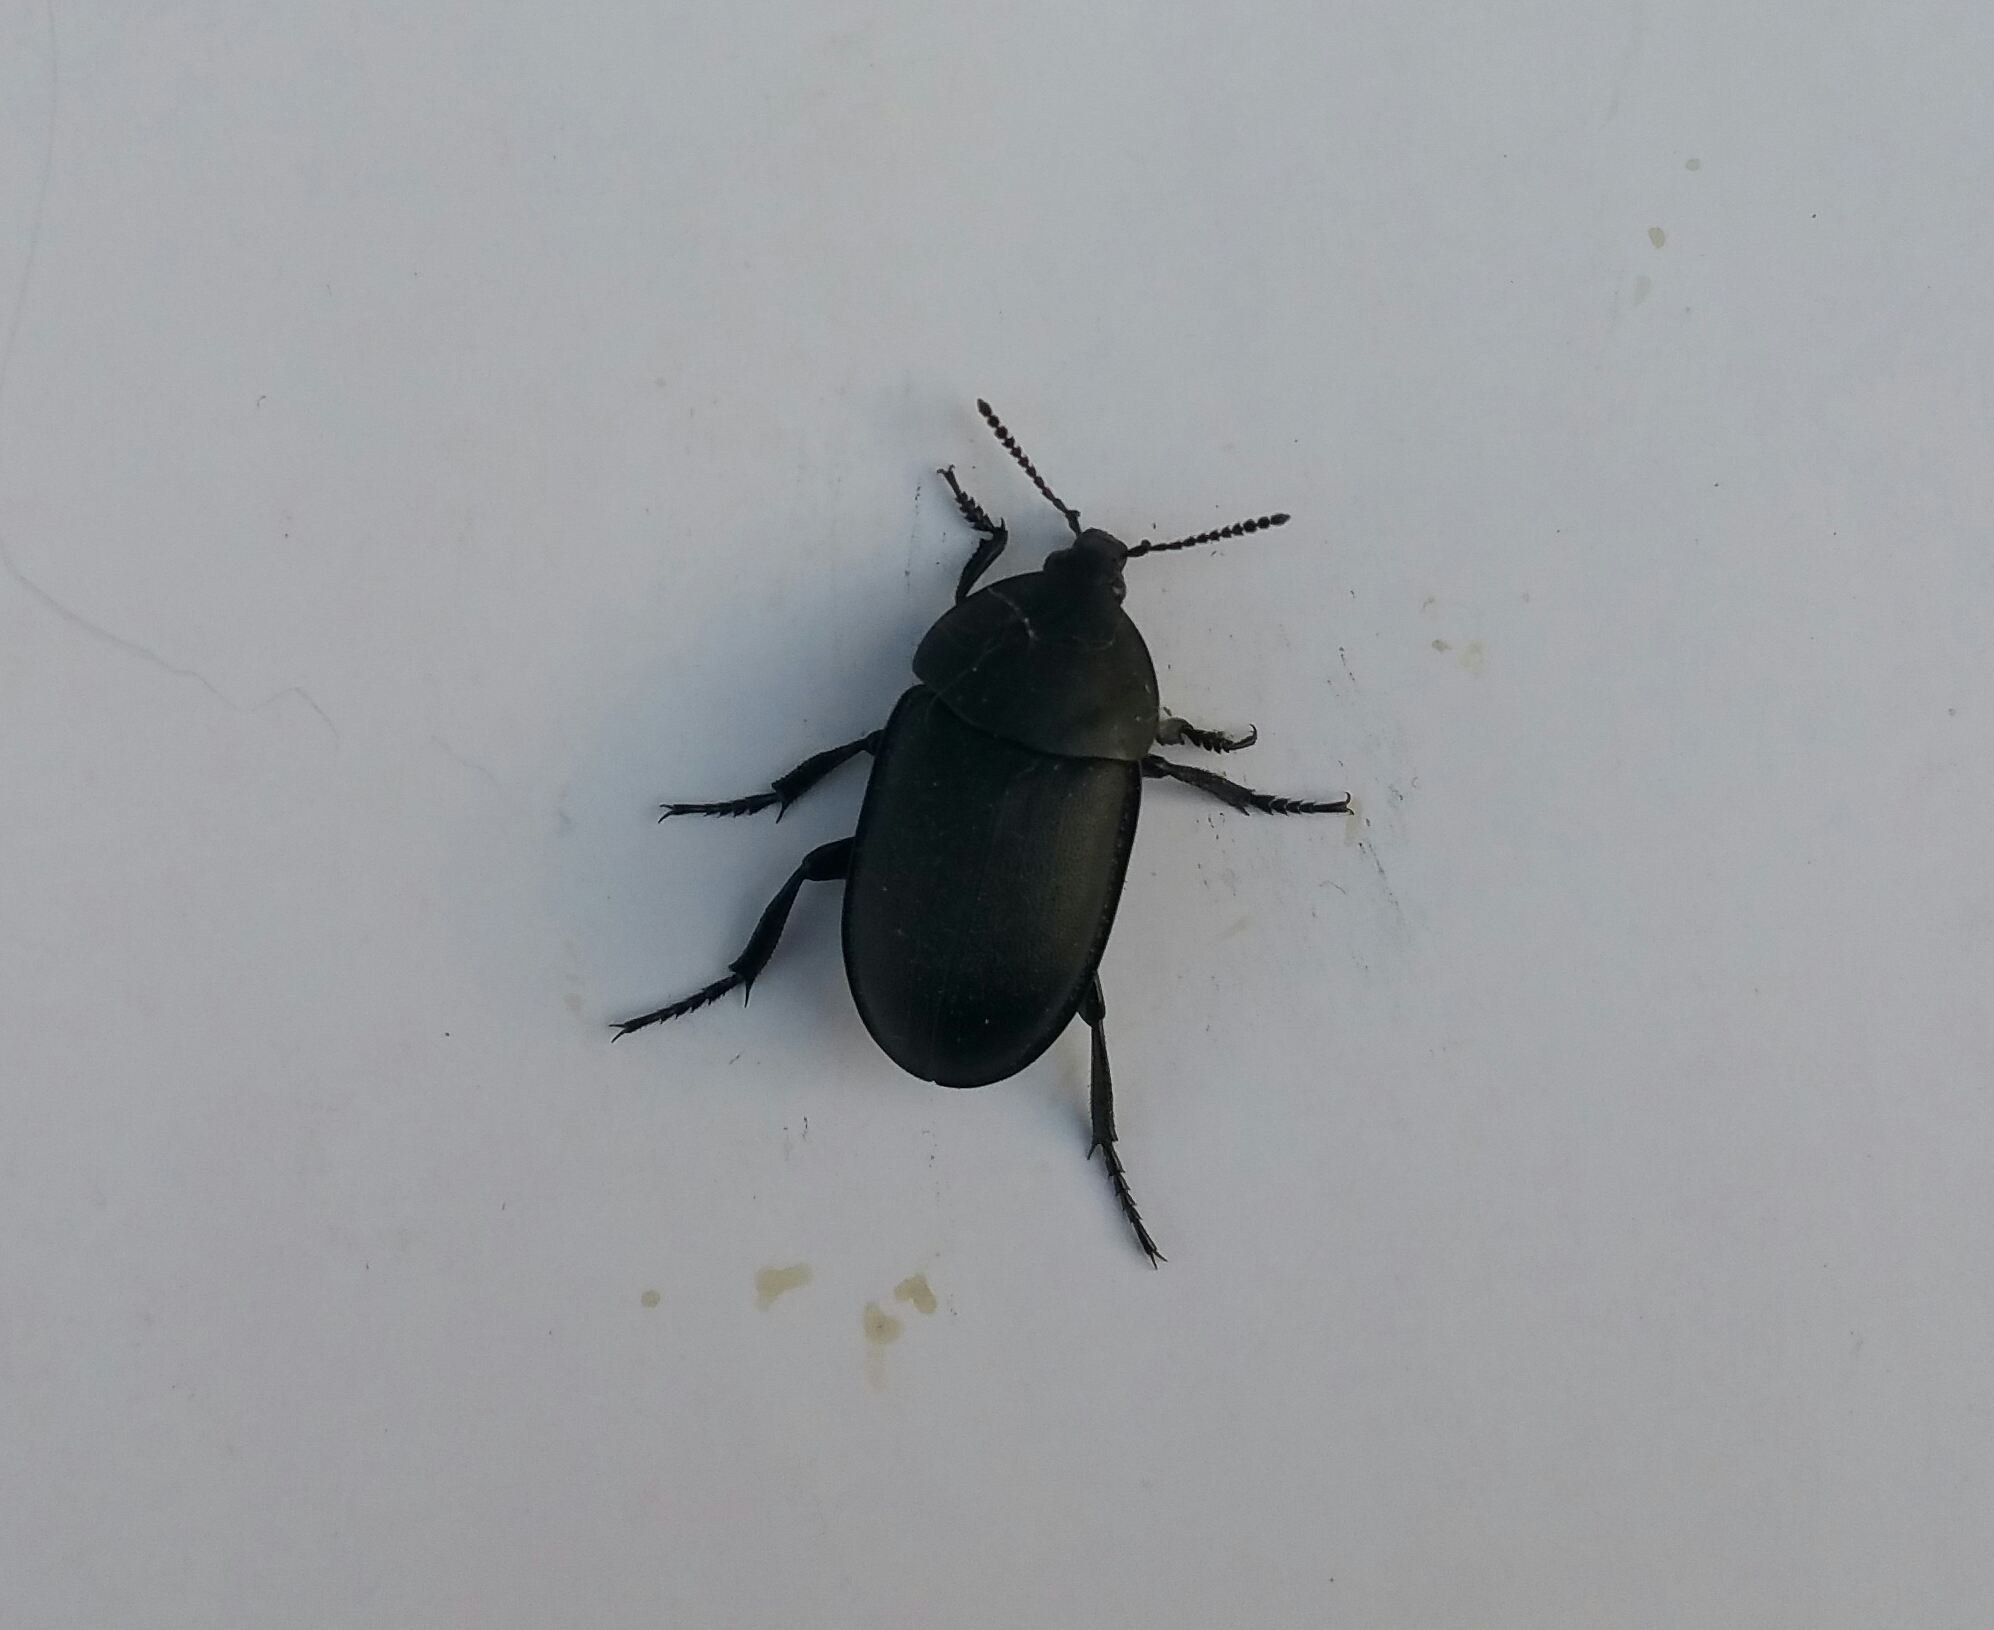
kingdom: Animalia
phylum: Arthropoda
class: Insecta
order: Coleoptera
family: Staphylinidae
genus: Silpha
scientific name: Silpha laevigata
